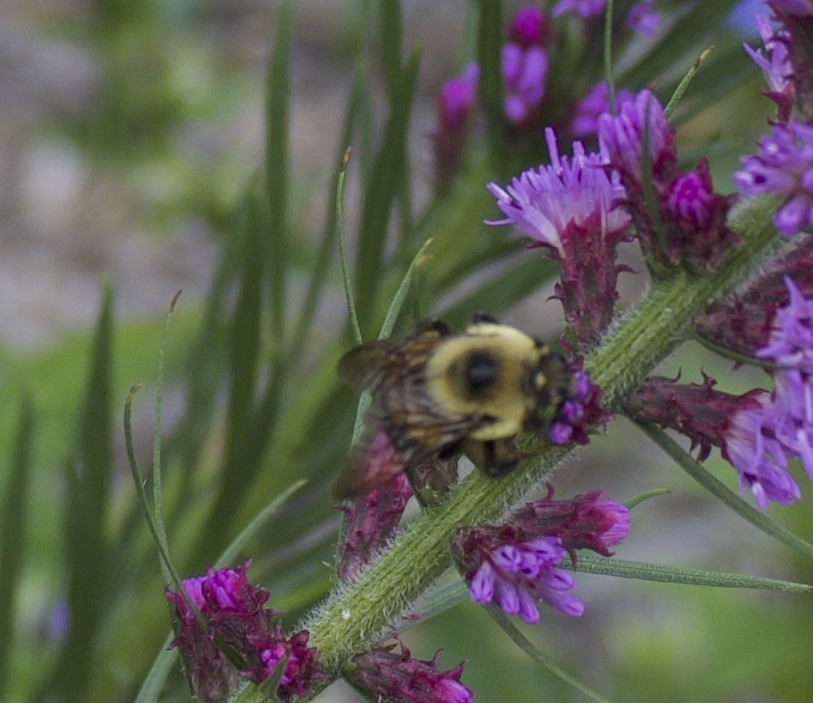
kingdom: Animalia
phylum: Arthropoda
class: Insecta
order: Hymenoptera
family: Apidae
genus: Bombus
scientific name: Bombus griseocollis
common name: Brown-belted bumble bee
